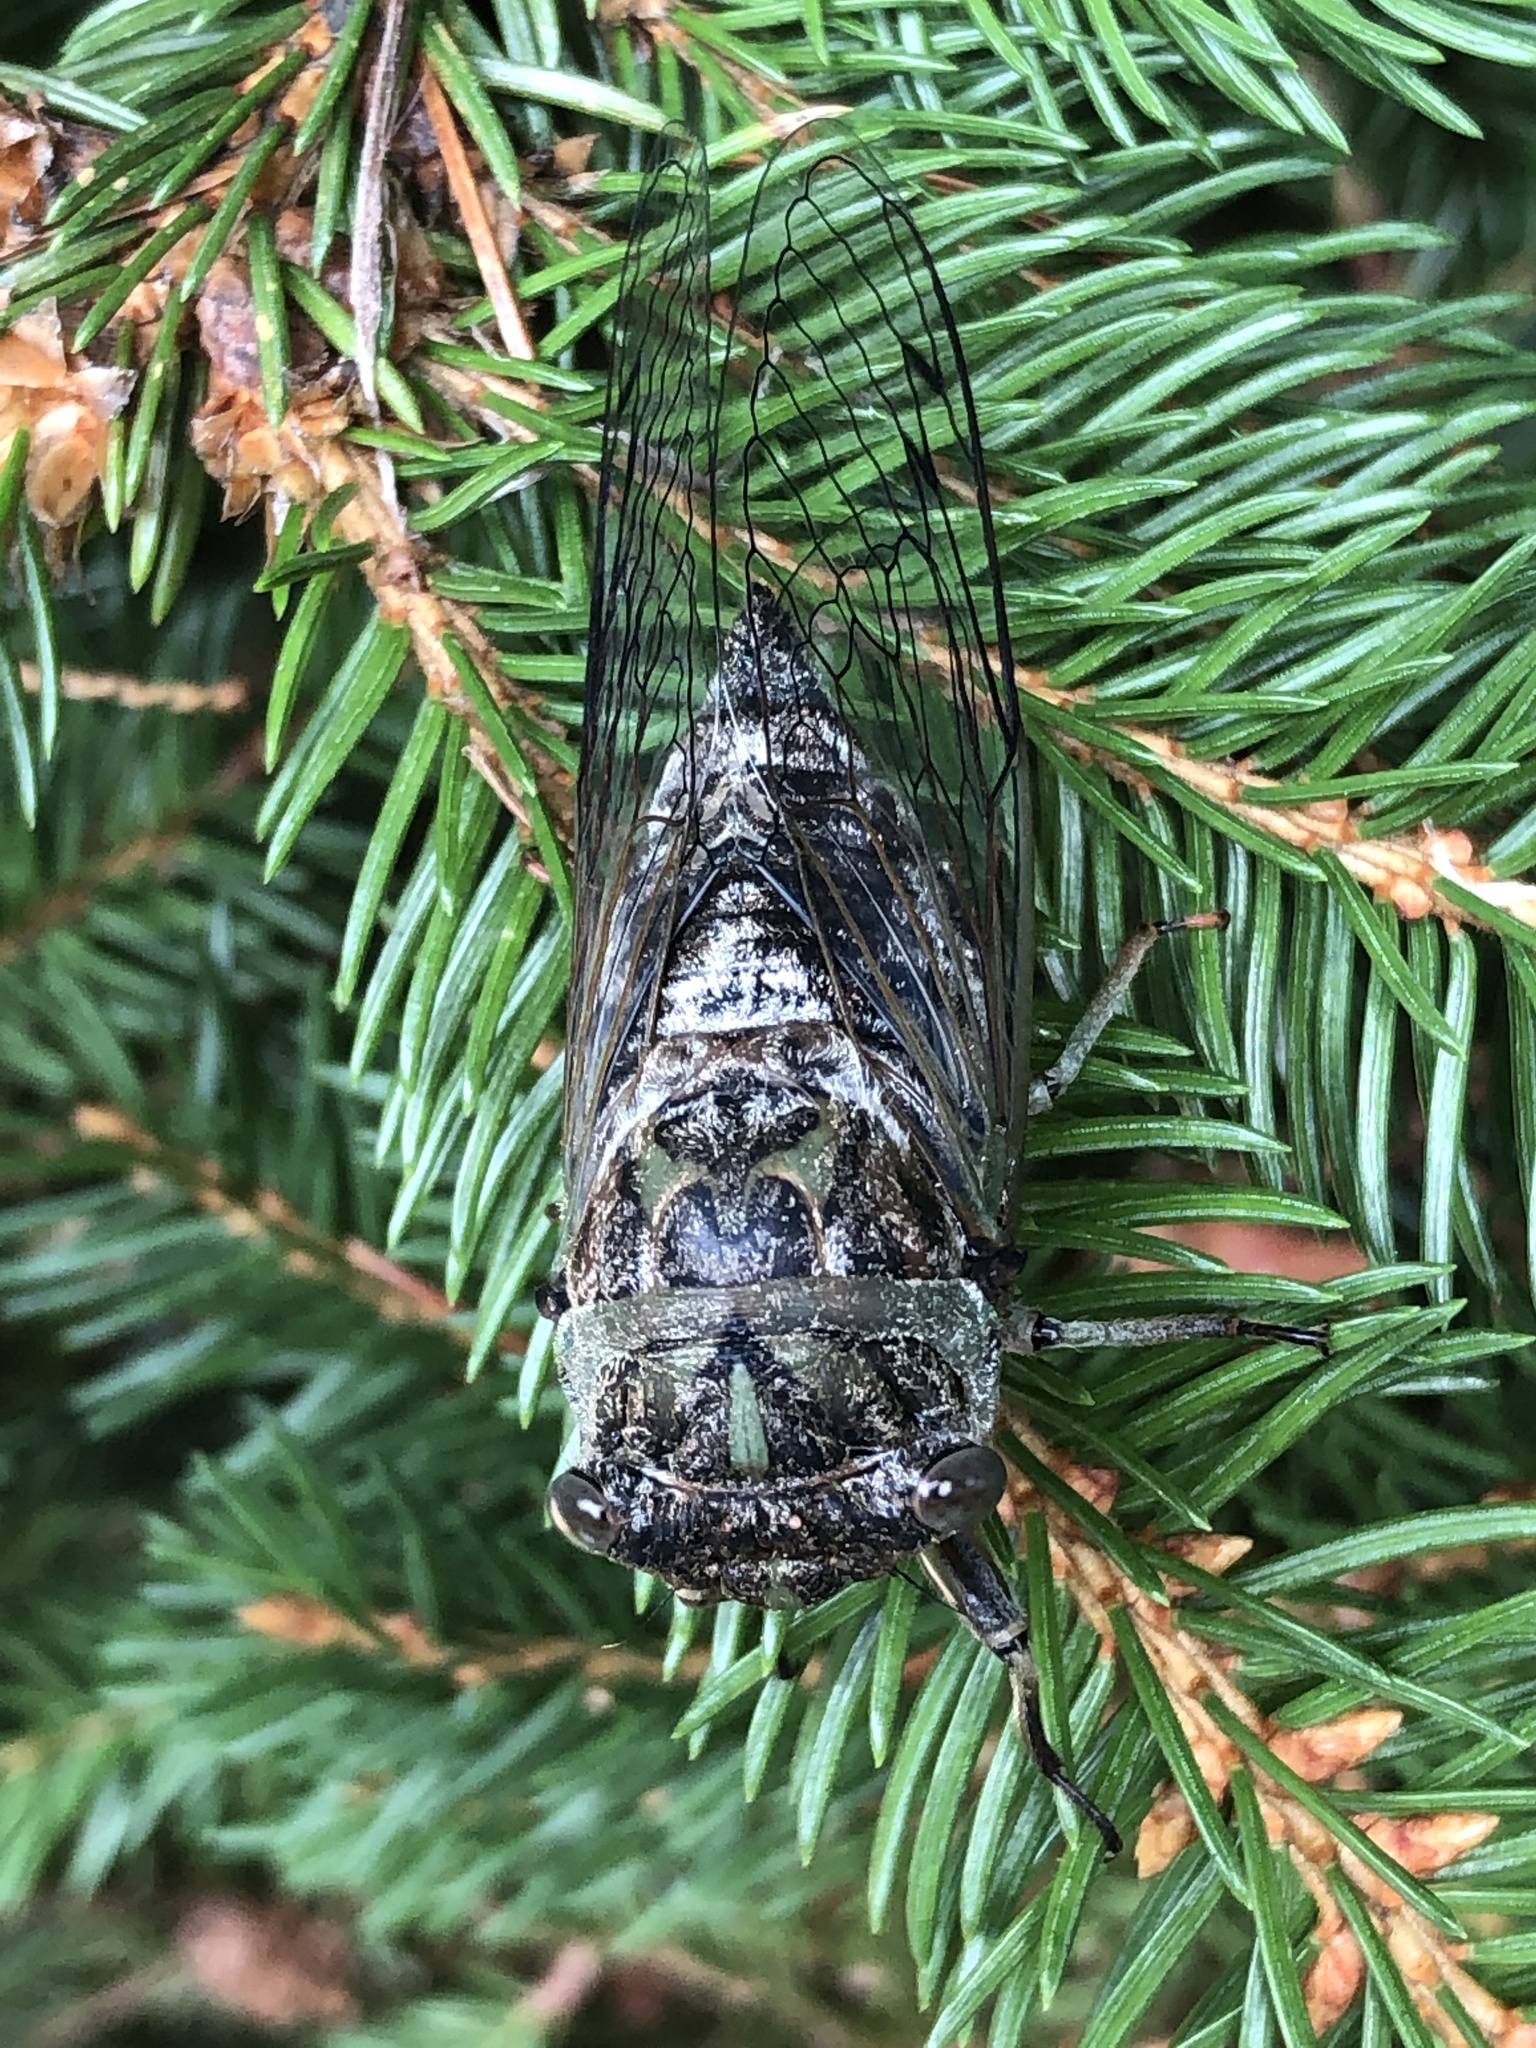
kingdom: Animalia
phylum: Arthropoda
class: Insecta
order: Hemiptera
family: Cicadidae
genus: Neotibicen
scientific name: Neotibicen canicularis
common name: God-day cicada
